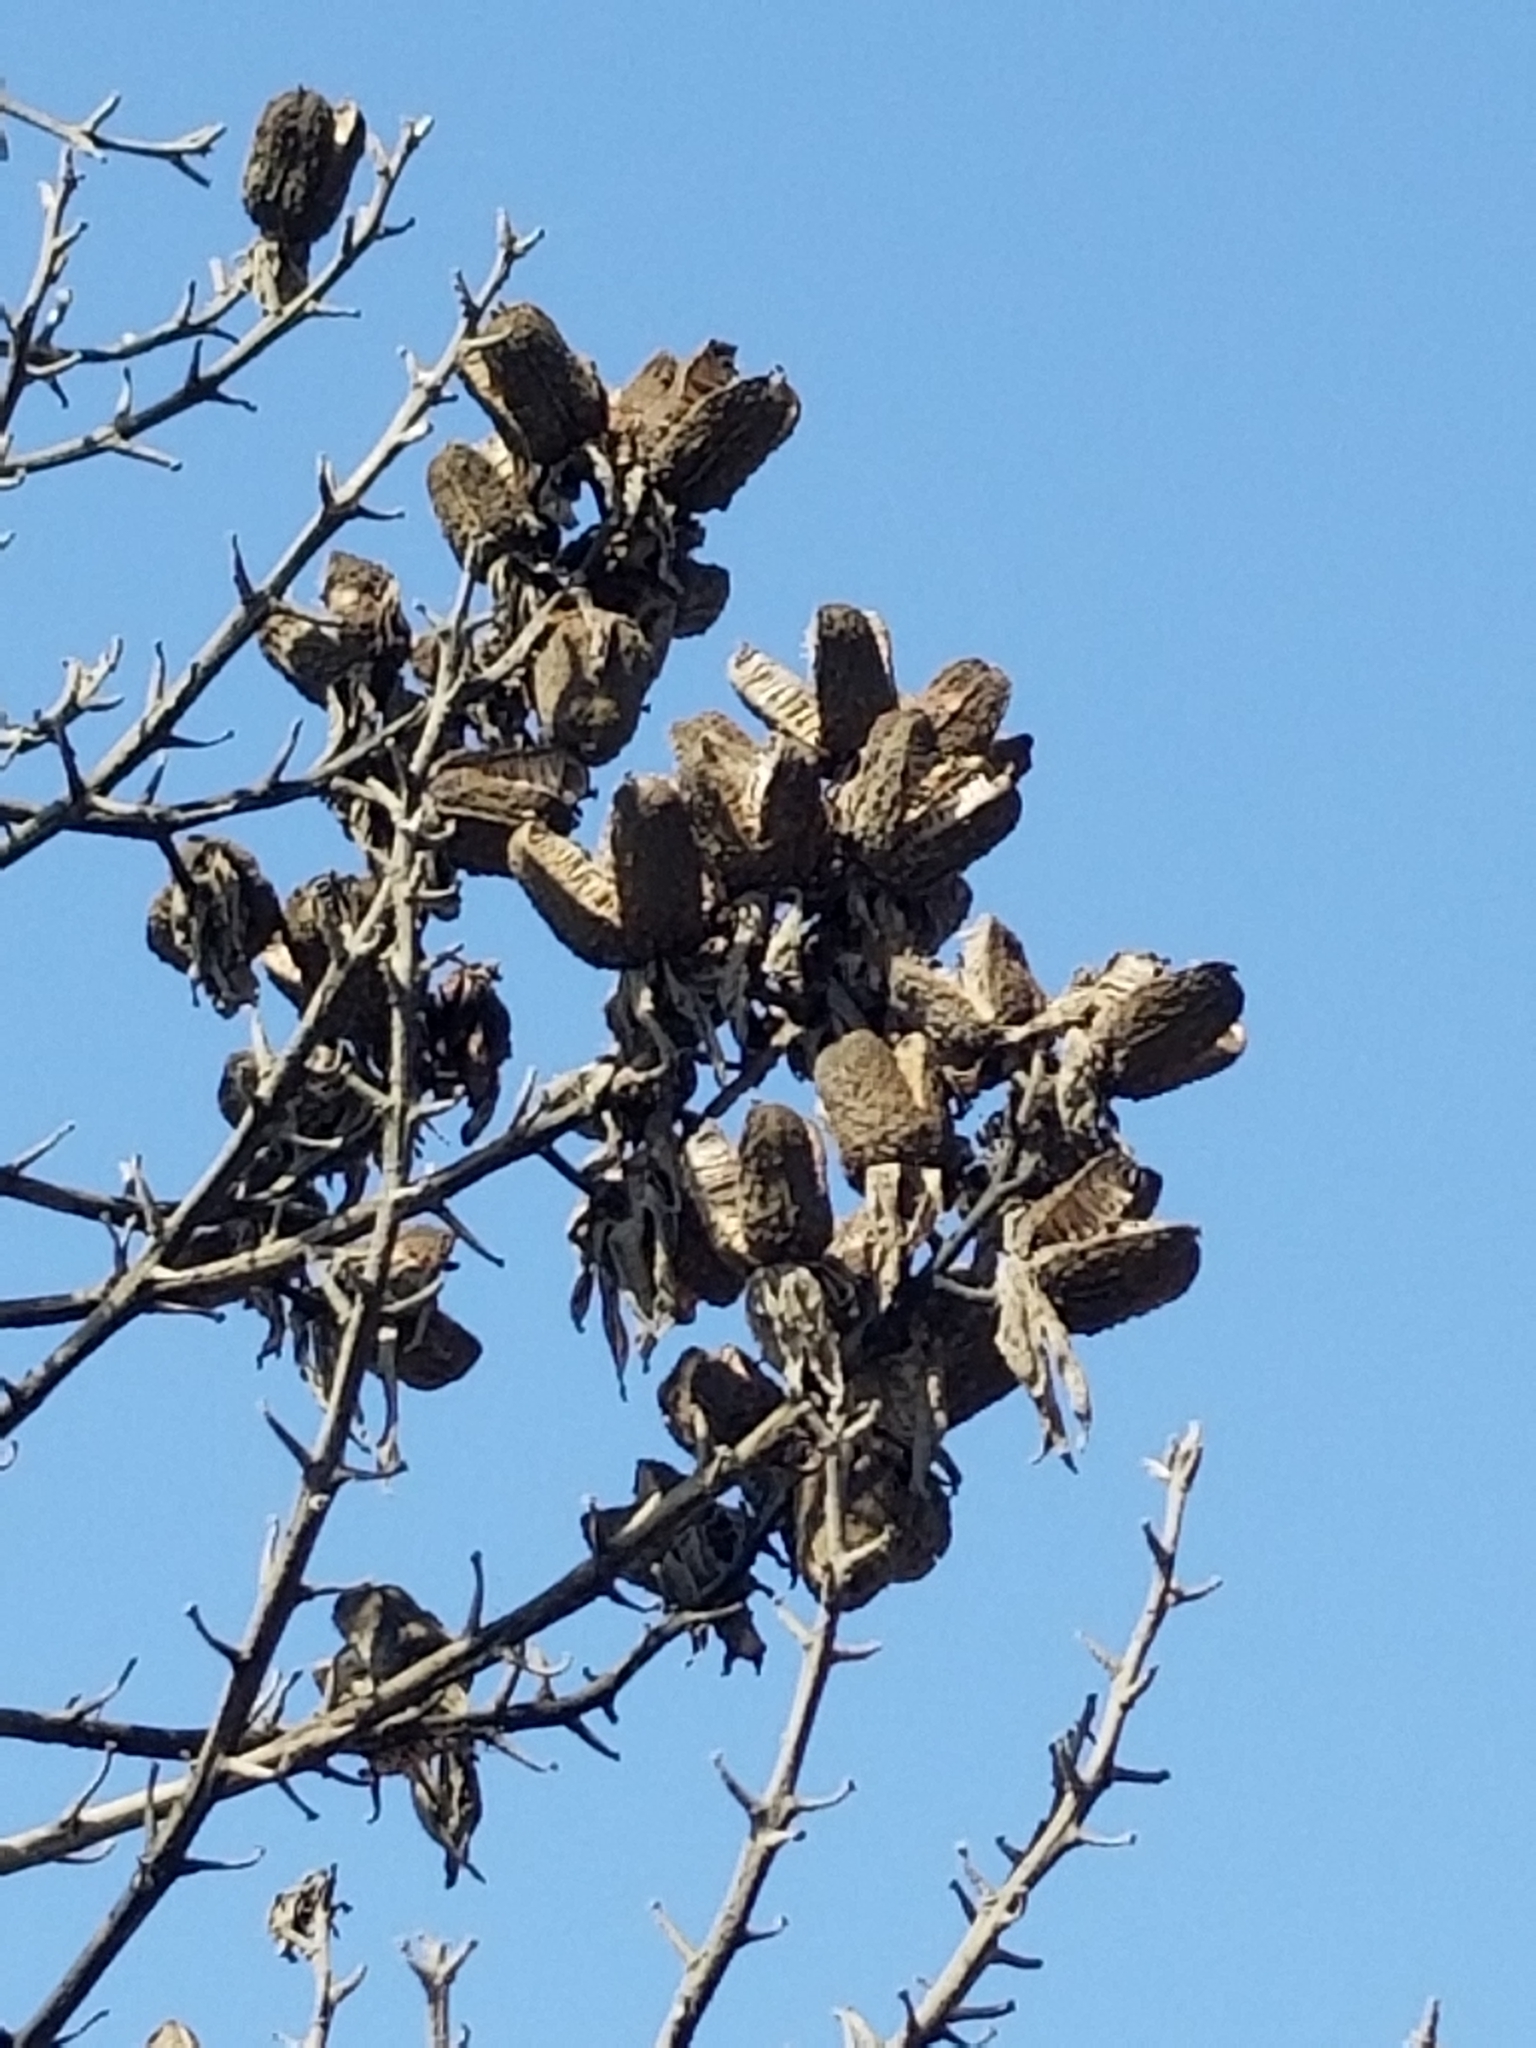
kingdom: Plantae
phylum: Tracheophyta
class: Liliopsida
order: Asparagales
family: Asparagaceae
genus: Hesperoyucca
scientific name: Hesperoyucca whipplei
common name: Our lord's-candle
